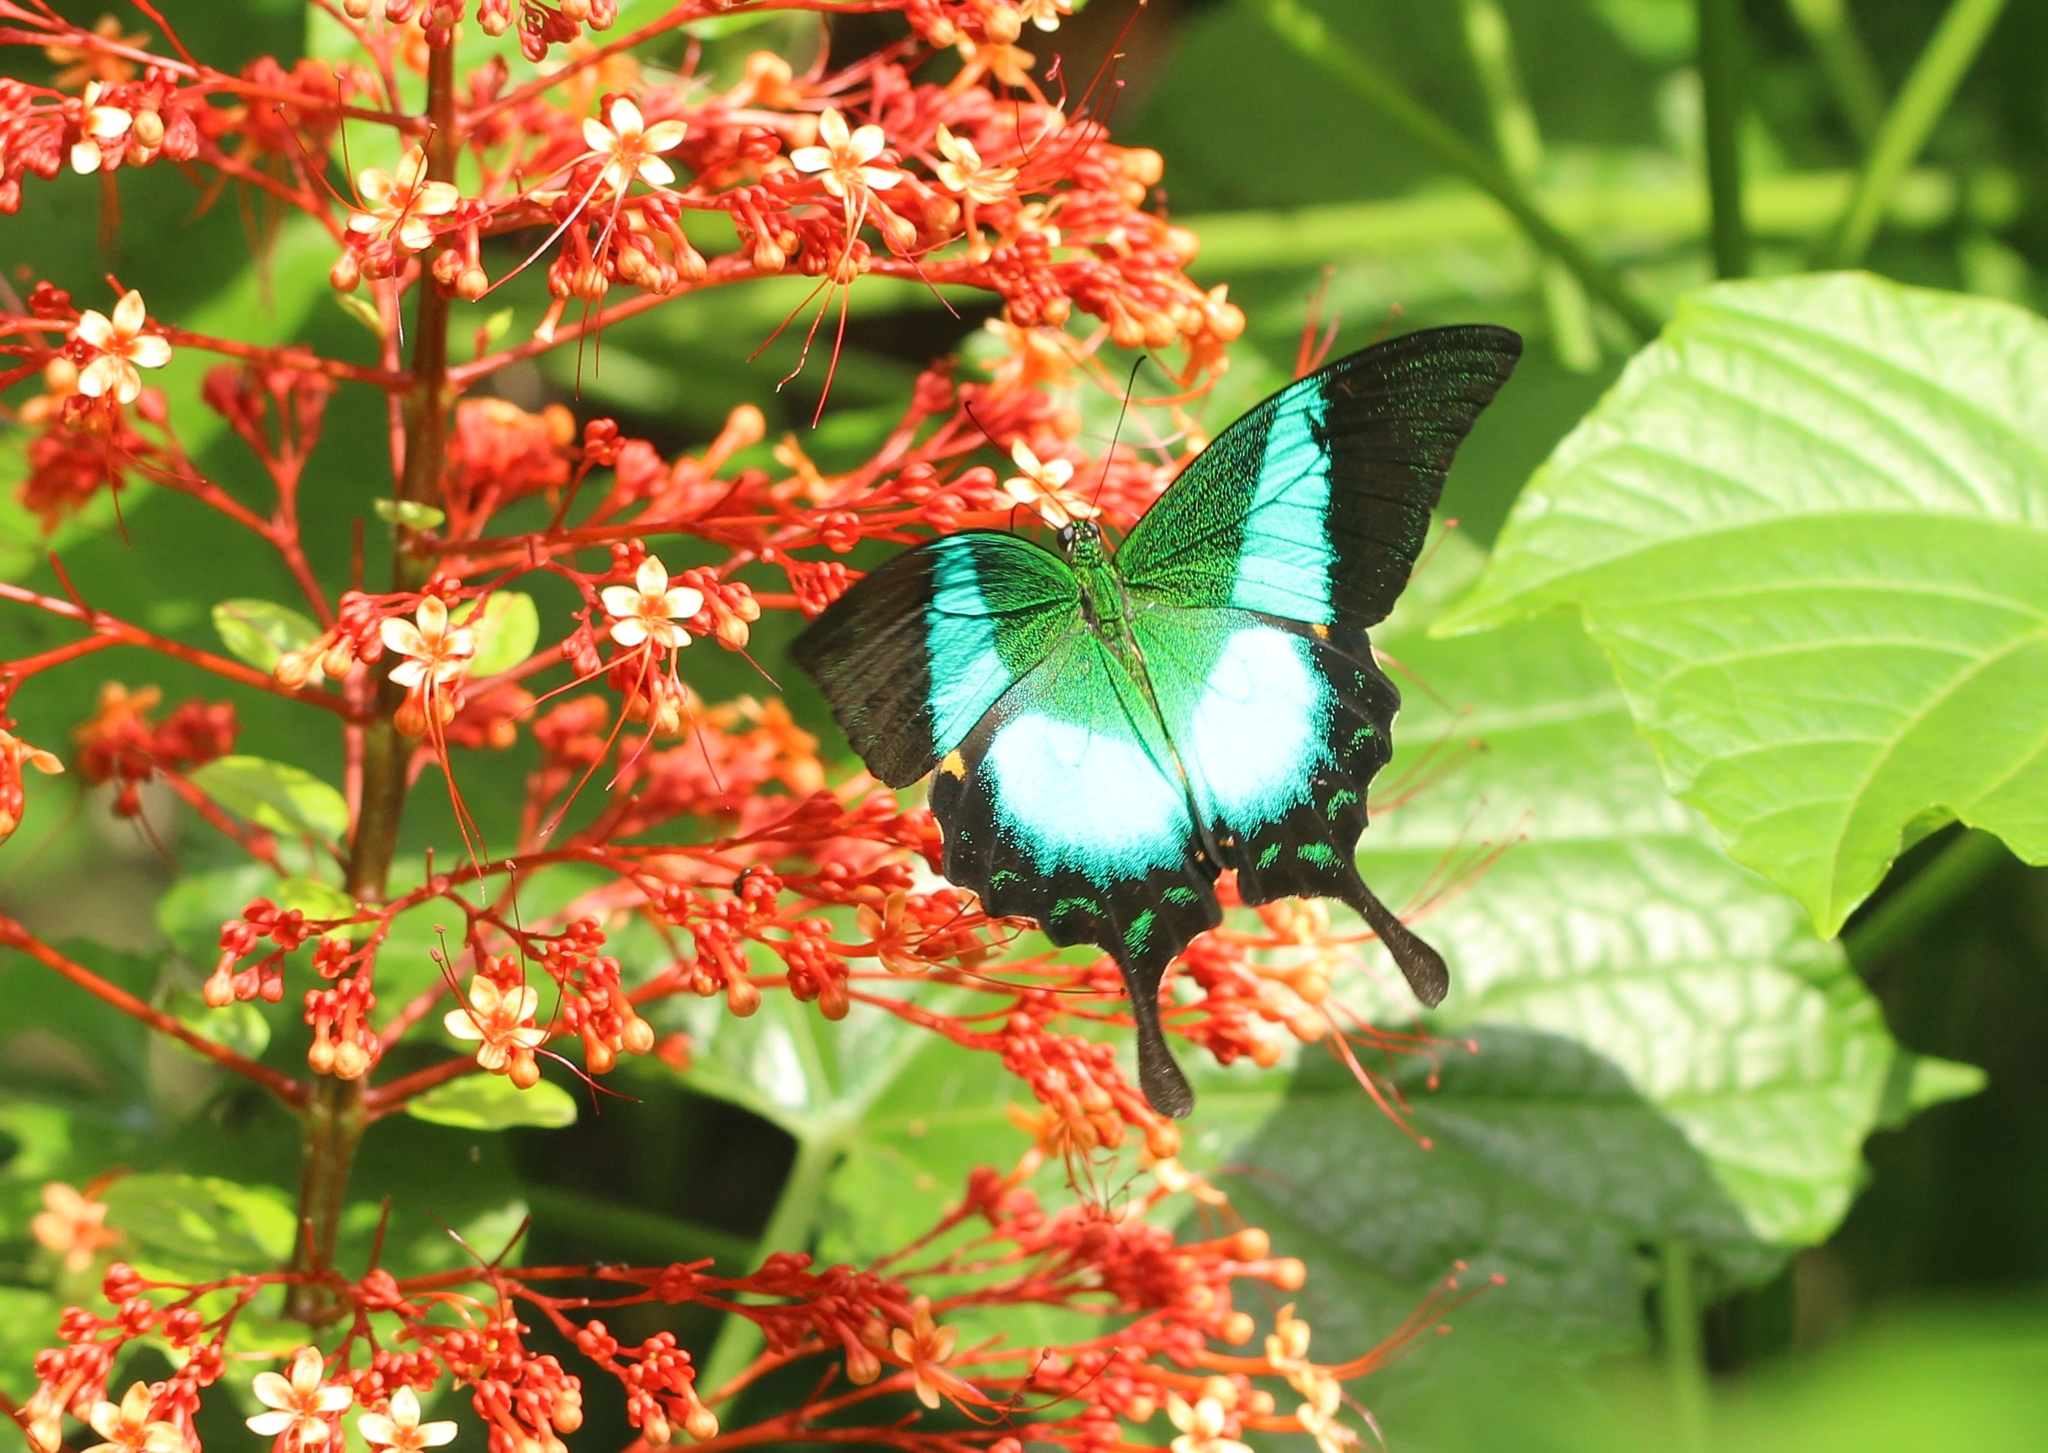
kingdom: Animalia
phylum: Arthropoda
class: Insecta
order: Lepidoptera
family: Papilionidae
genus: Papilio
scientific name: Papilio buddha
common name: Malabar banded peacock
